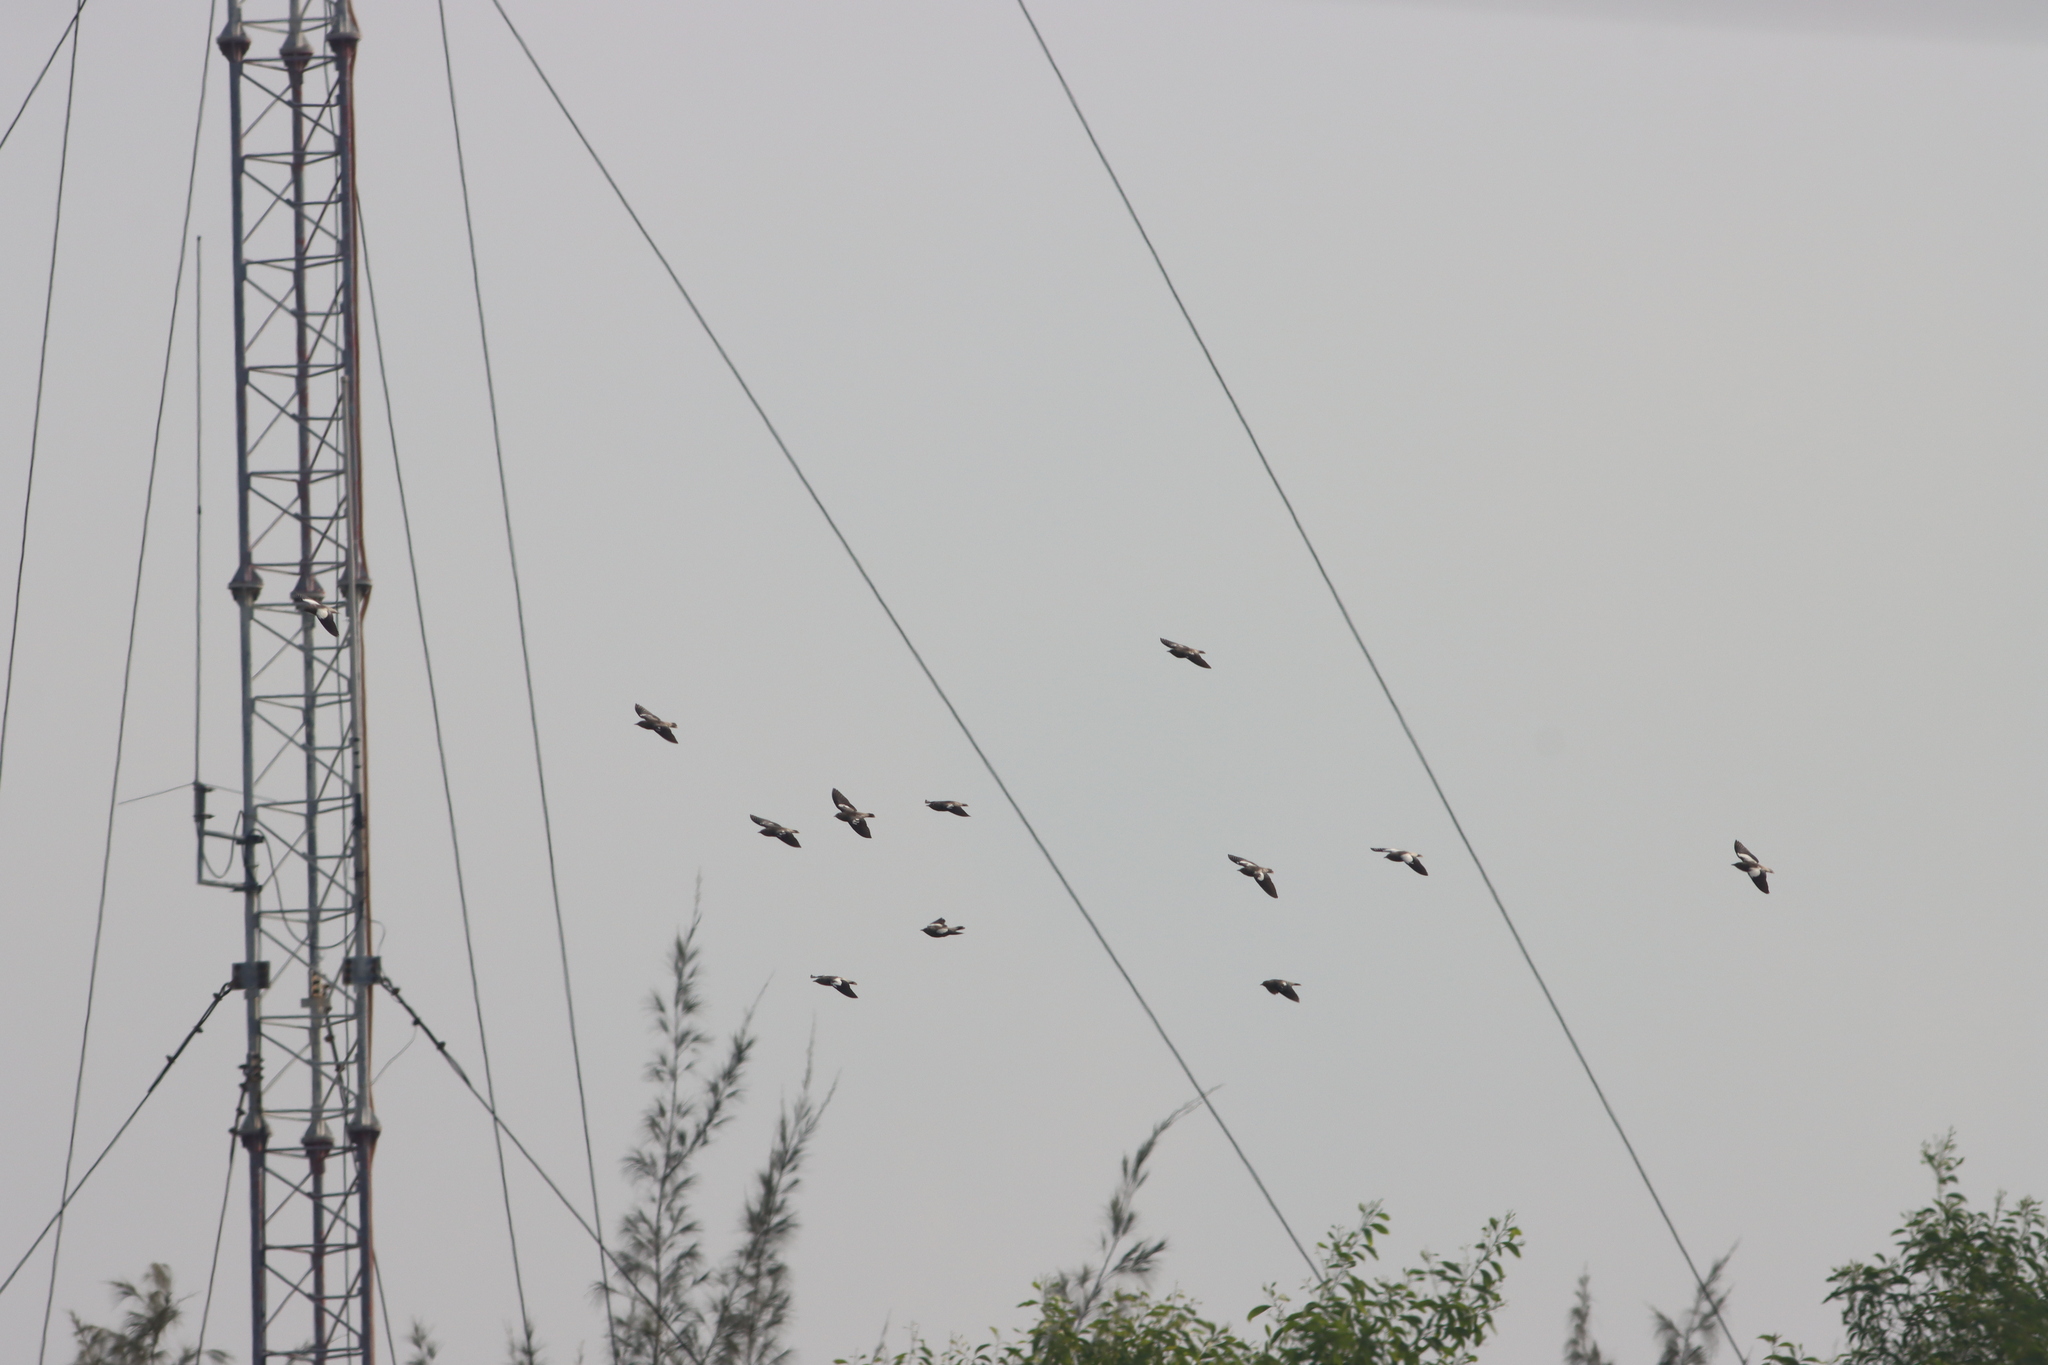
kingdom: Animalia
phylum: Chordata
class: Aves
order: Passeriformes
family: Sturnidae
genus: Sturnia
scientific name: Sturnia sinensis
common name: White-shouldered starling
